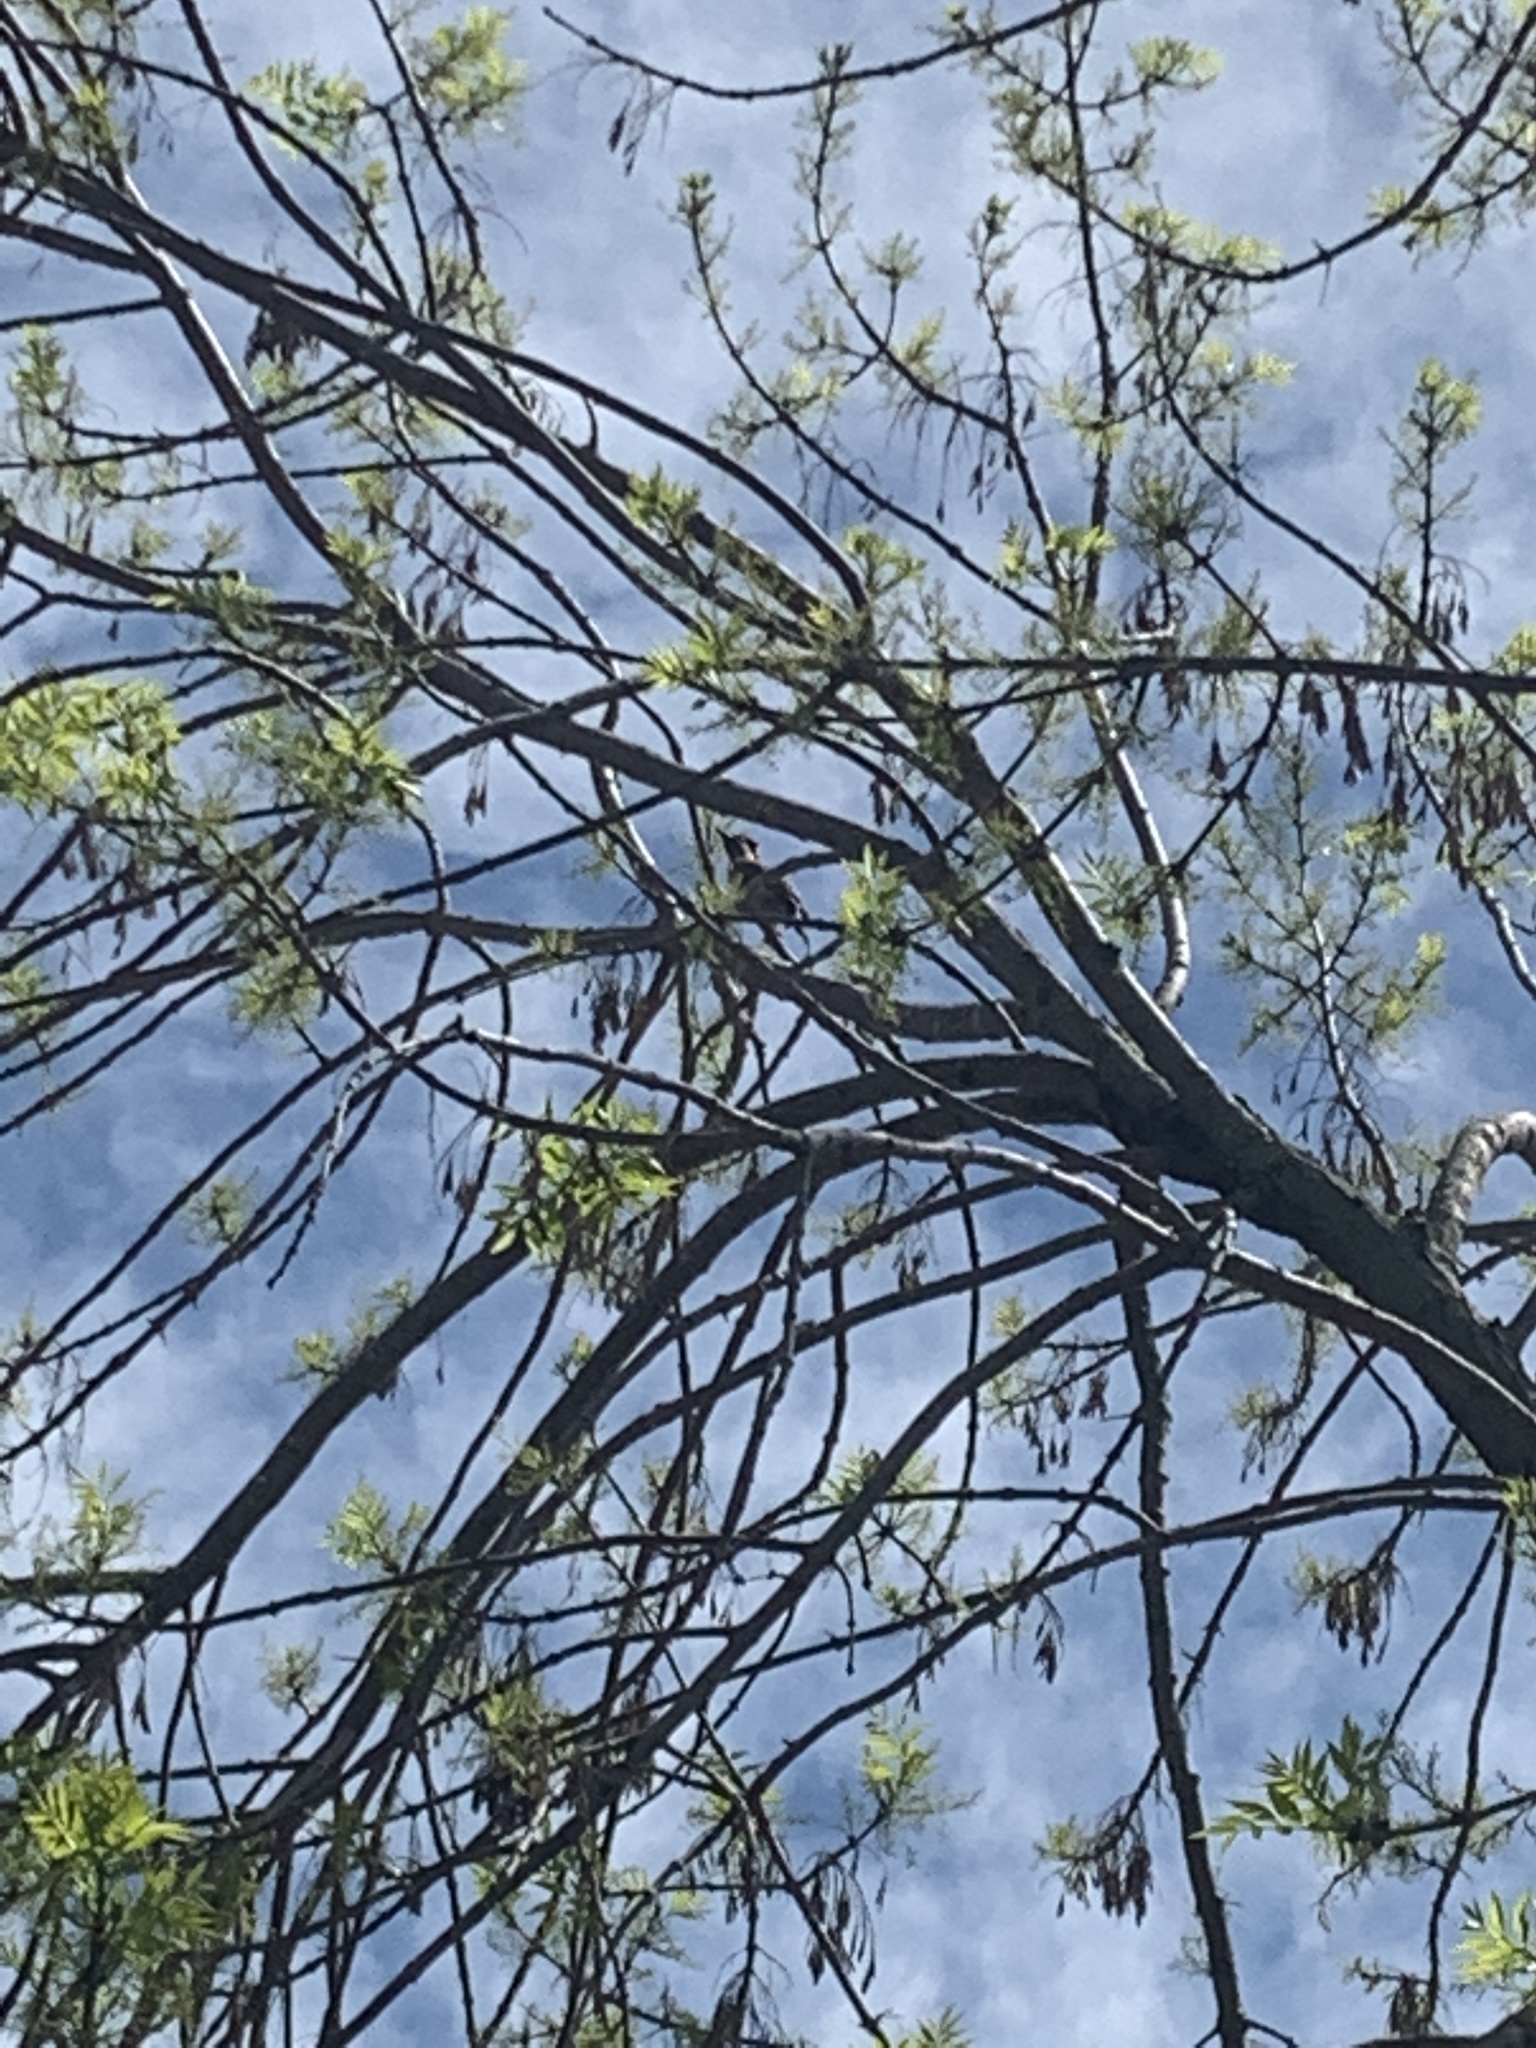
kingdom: Animalia
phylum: Chordata
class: Aves
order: Piciformes
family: Picidae
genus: Colaptes
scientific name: Colaptes melanochloros
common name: Green-barred woodpecker
